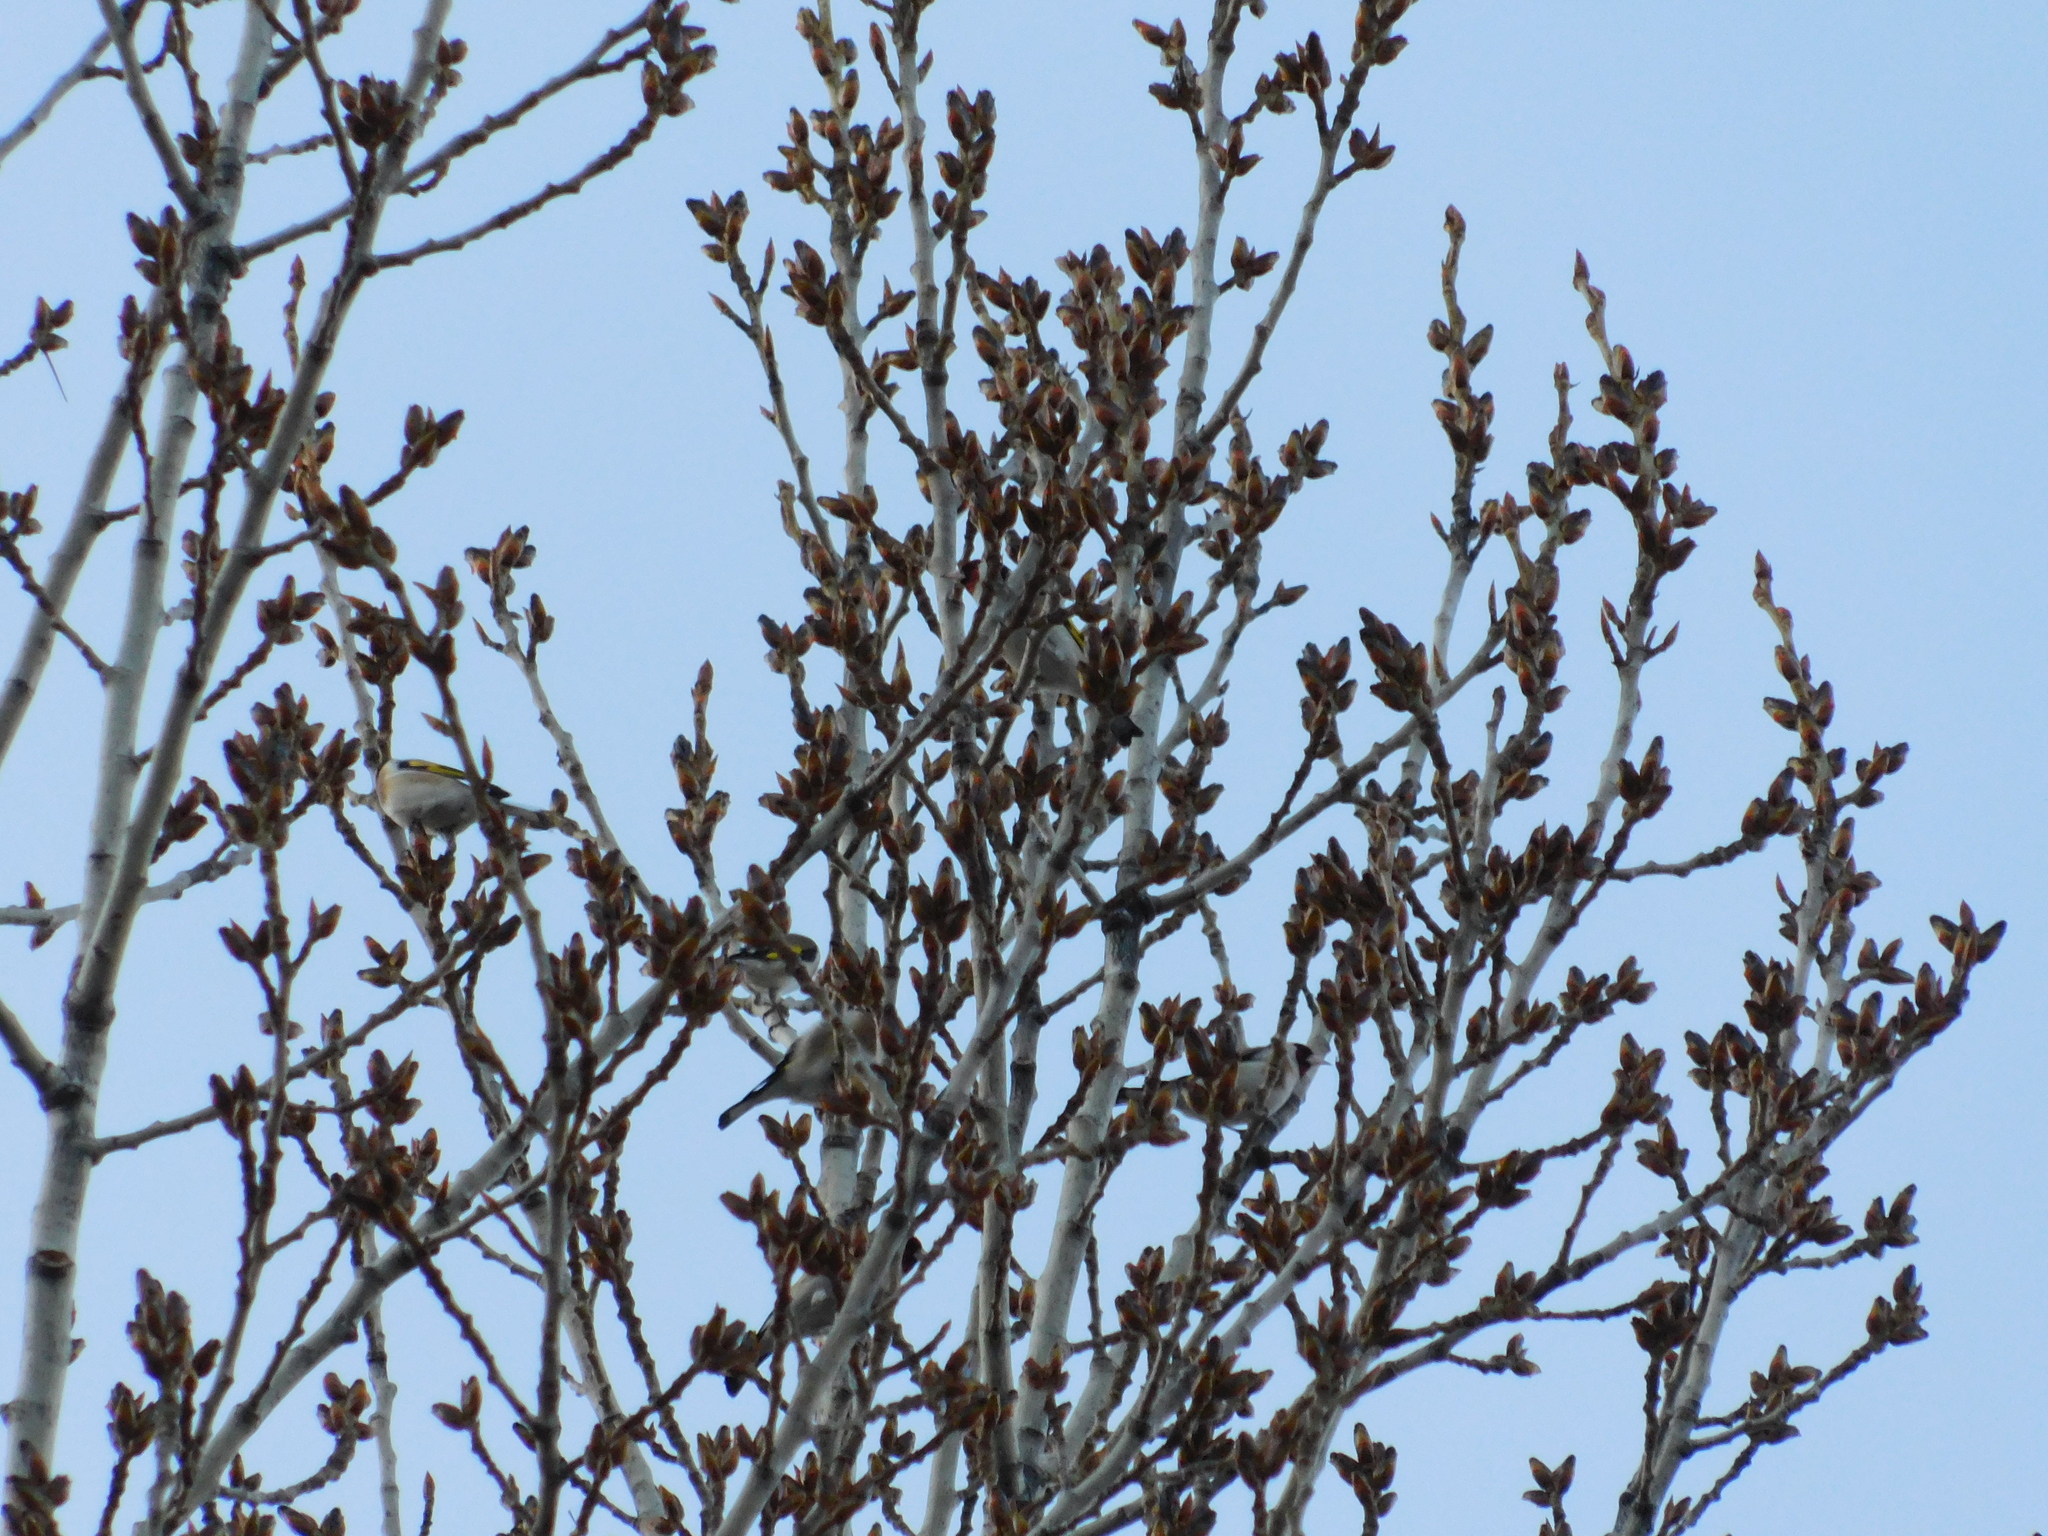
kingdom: Animalia
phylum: Chordata
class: Aves
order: Passeriformes
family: Fringillidae
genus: Carduelis
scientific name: Carduelis carduelis
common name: European goldfinch
